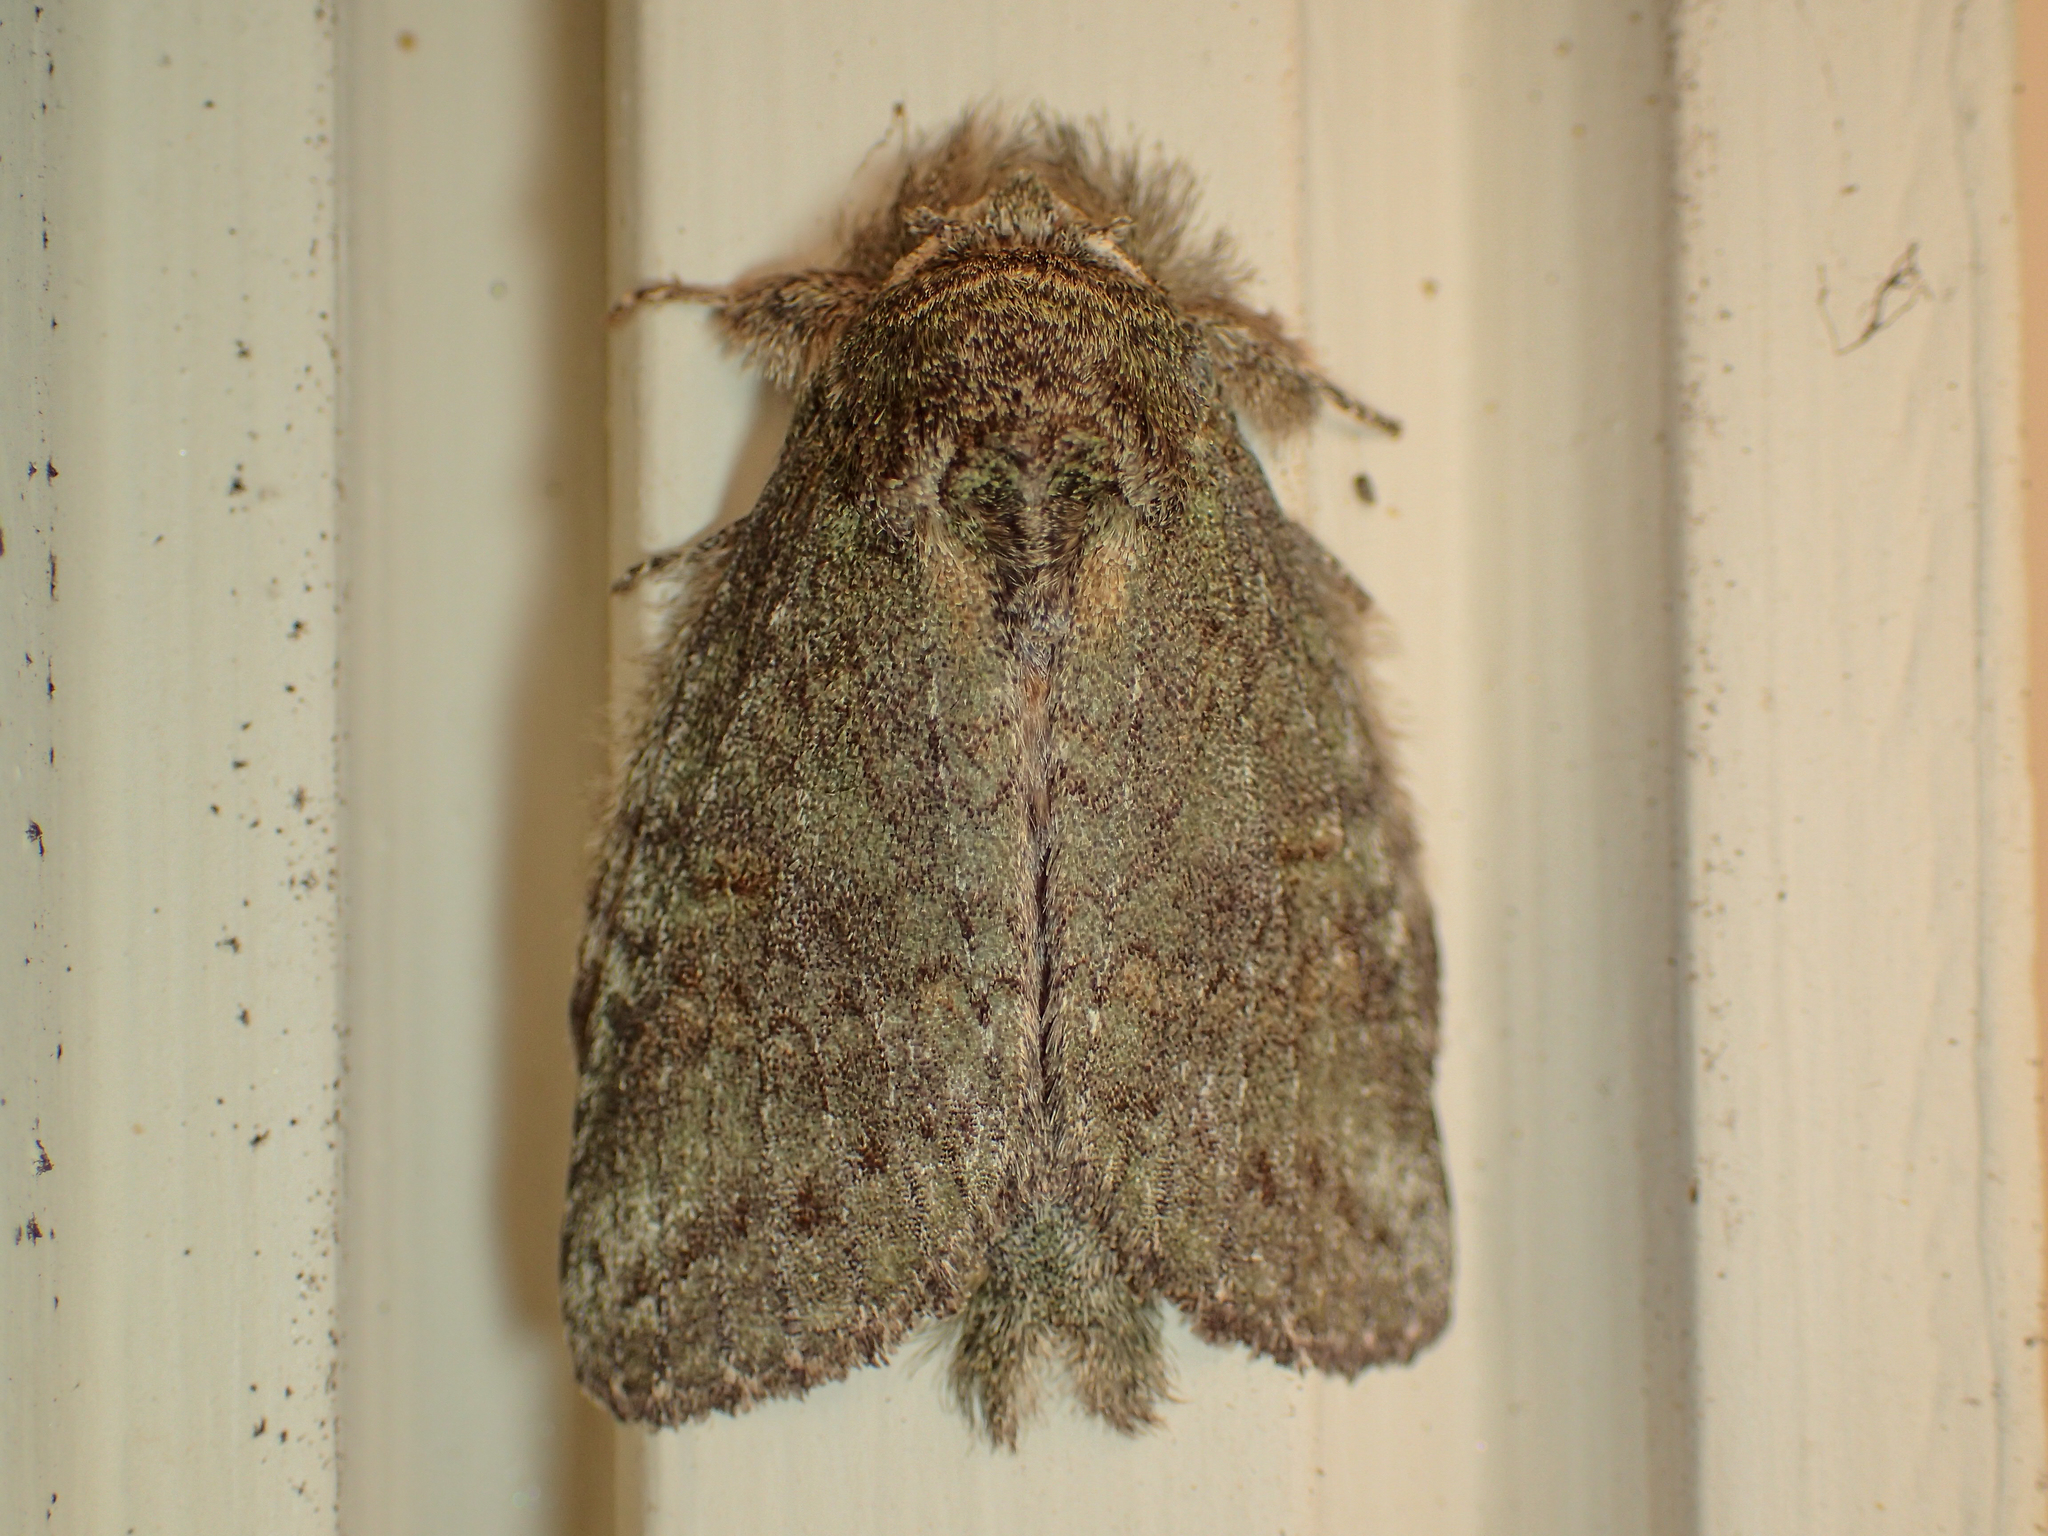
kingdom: Animalia
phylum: Arthropoda
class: Insecta
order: Lepidoptera
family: Notodontidae
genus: Disphragis
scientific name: Disphragis Cecrita guttivitta
